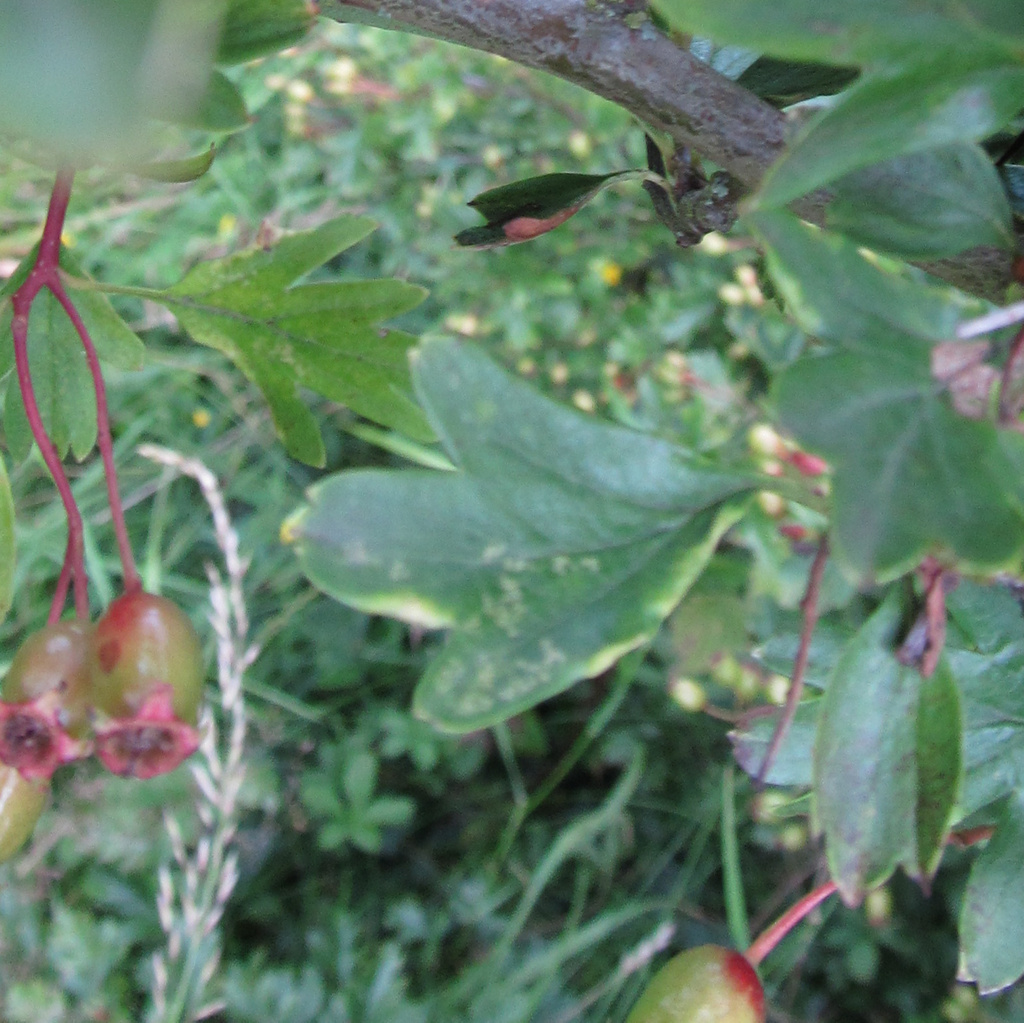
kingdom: Animalia
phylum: Arthropoda
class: Arachnida
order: Trombidiformes
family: Eriophyidae
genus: Phyllocoptes
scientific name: Phyllocoptes goniothorax
